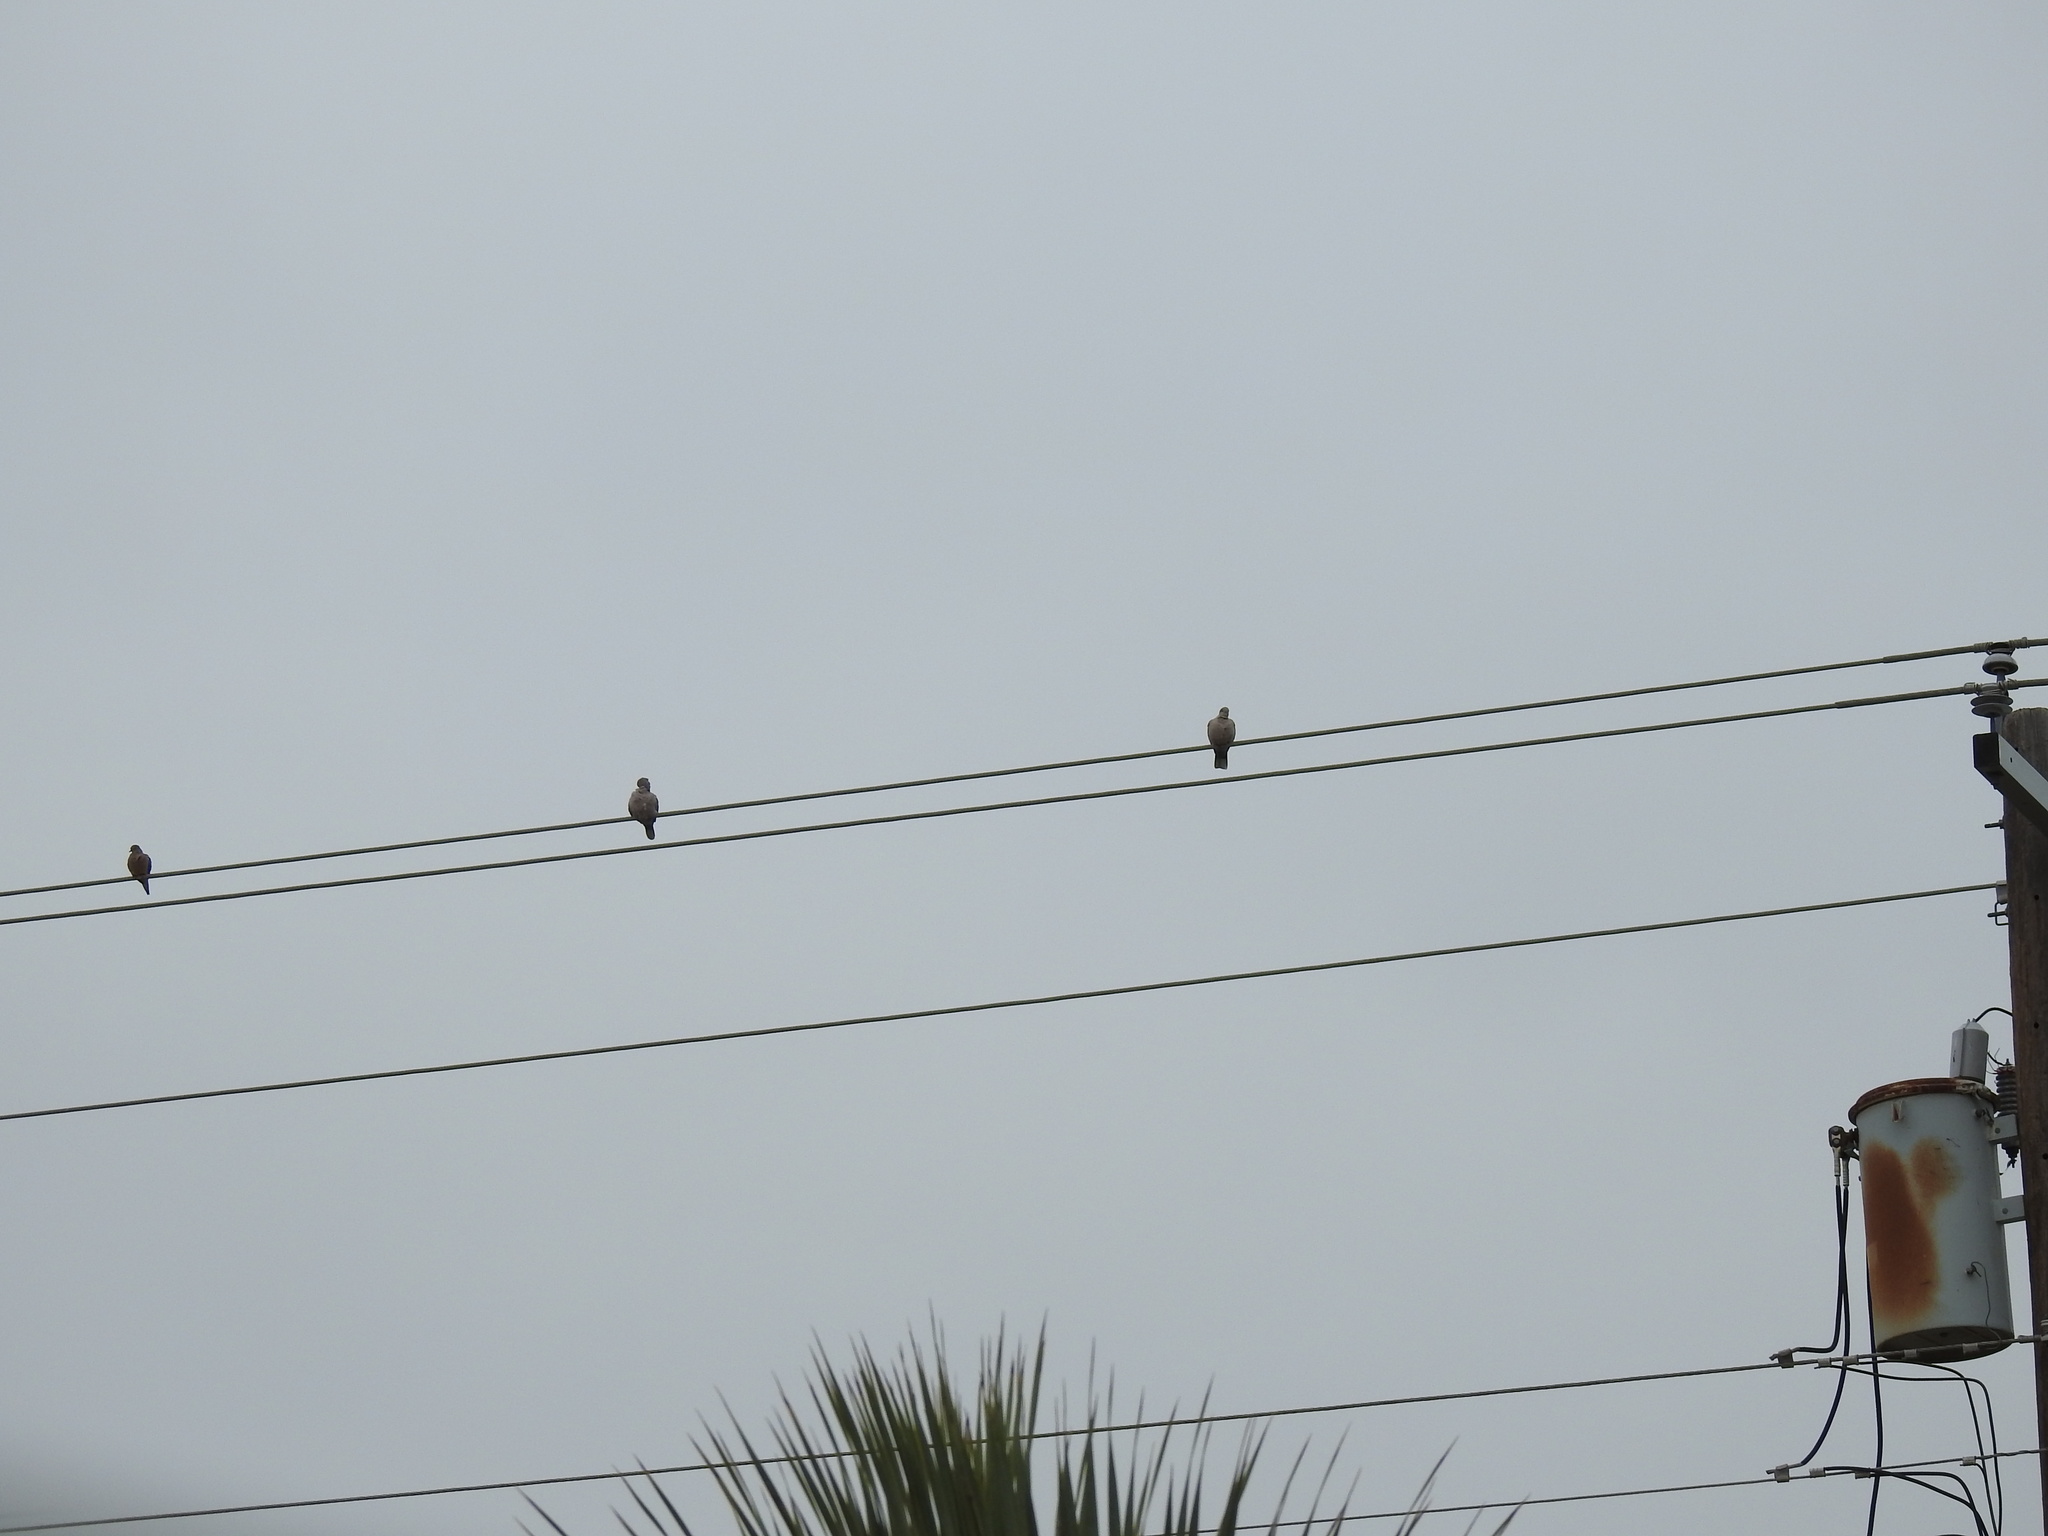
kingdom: Animalia
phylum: Chordata
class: Aves
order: Columbiformes
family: Columbidae
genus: Streptopelia
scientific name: Streptopelia decaocto
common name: Eurasian collared dove
